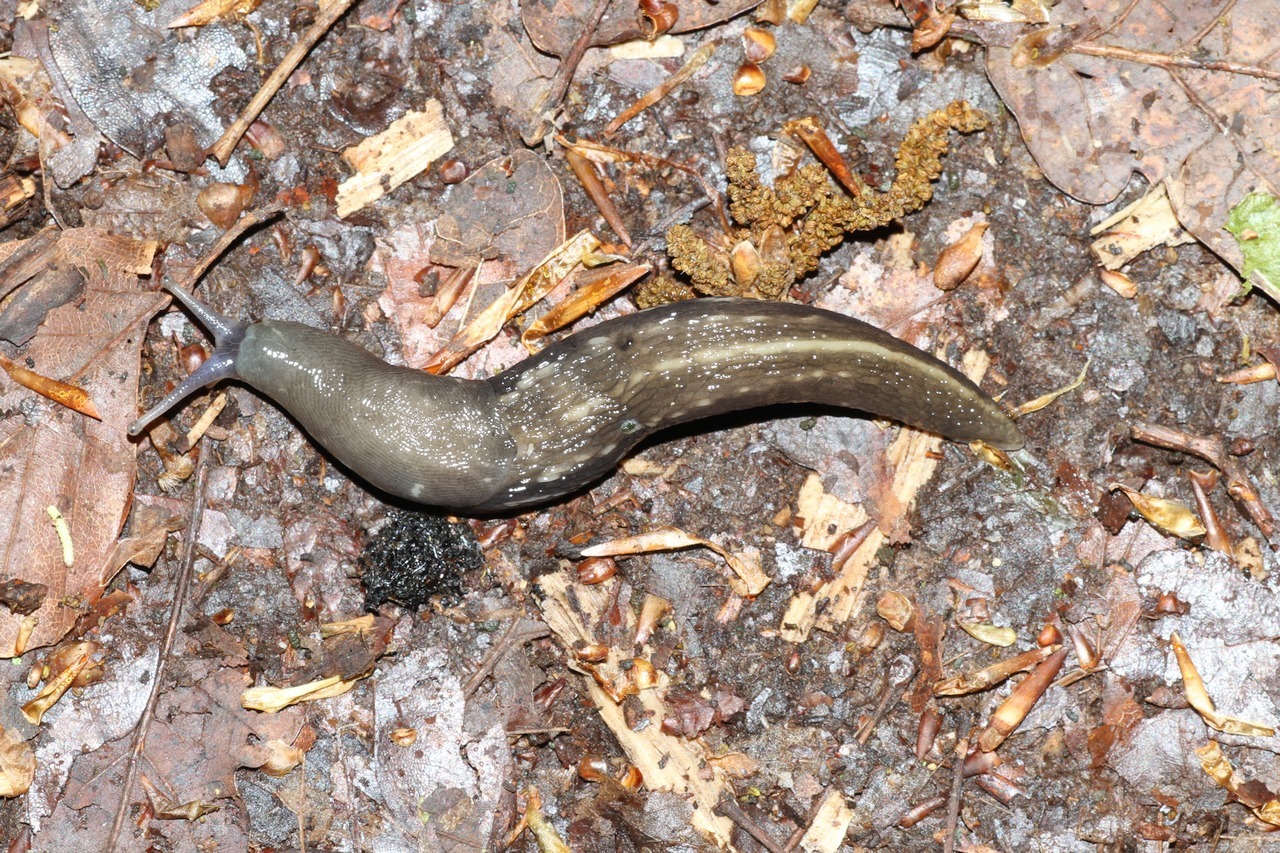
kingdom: Animalia
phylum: Mollusca
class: Gastropoda
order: Stylommatophora
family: Limacidae
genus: Limax
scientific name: Limax cinereoniger
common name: Ash-black slug
